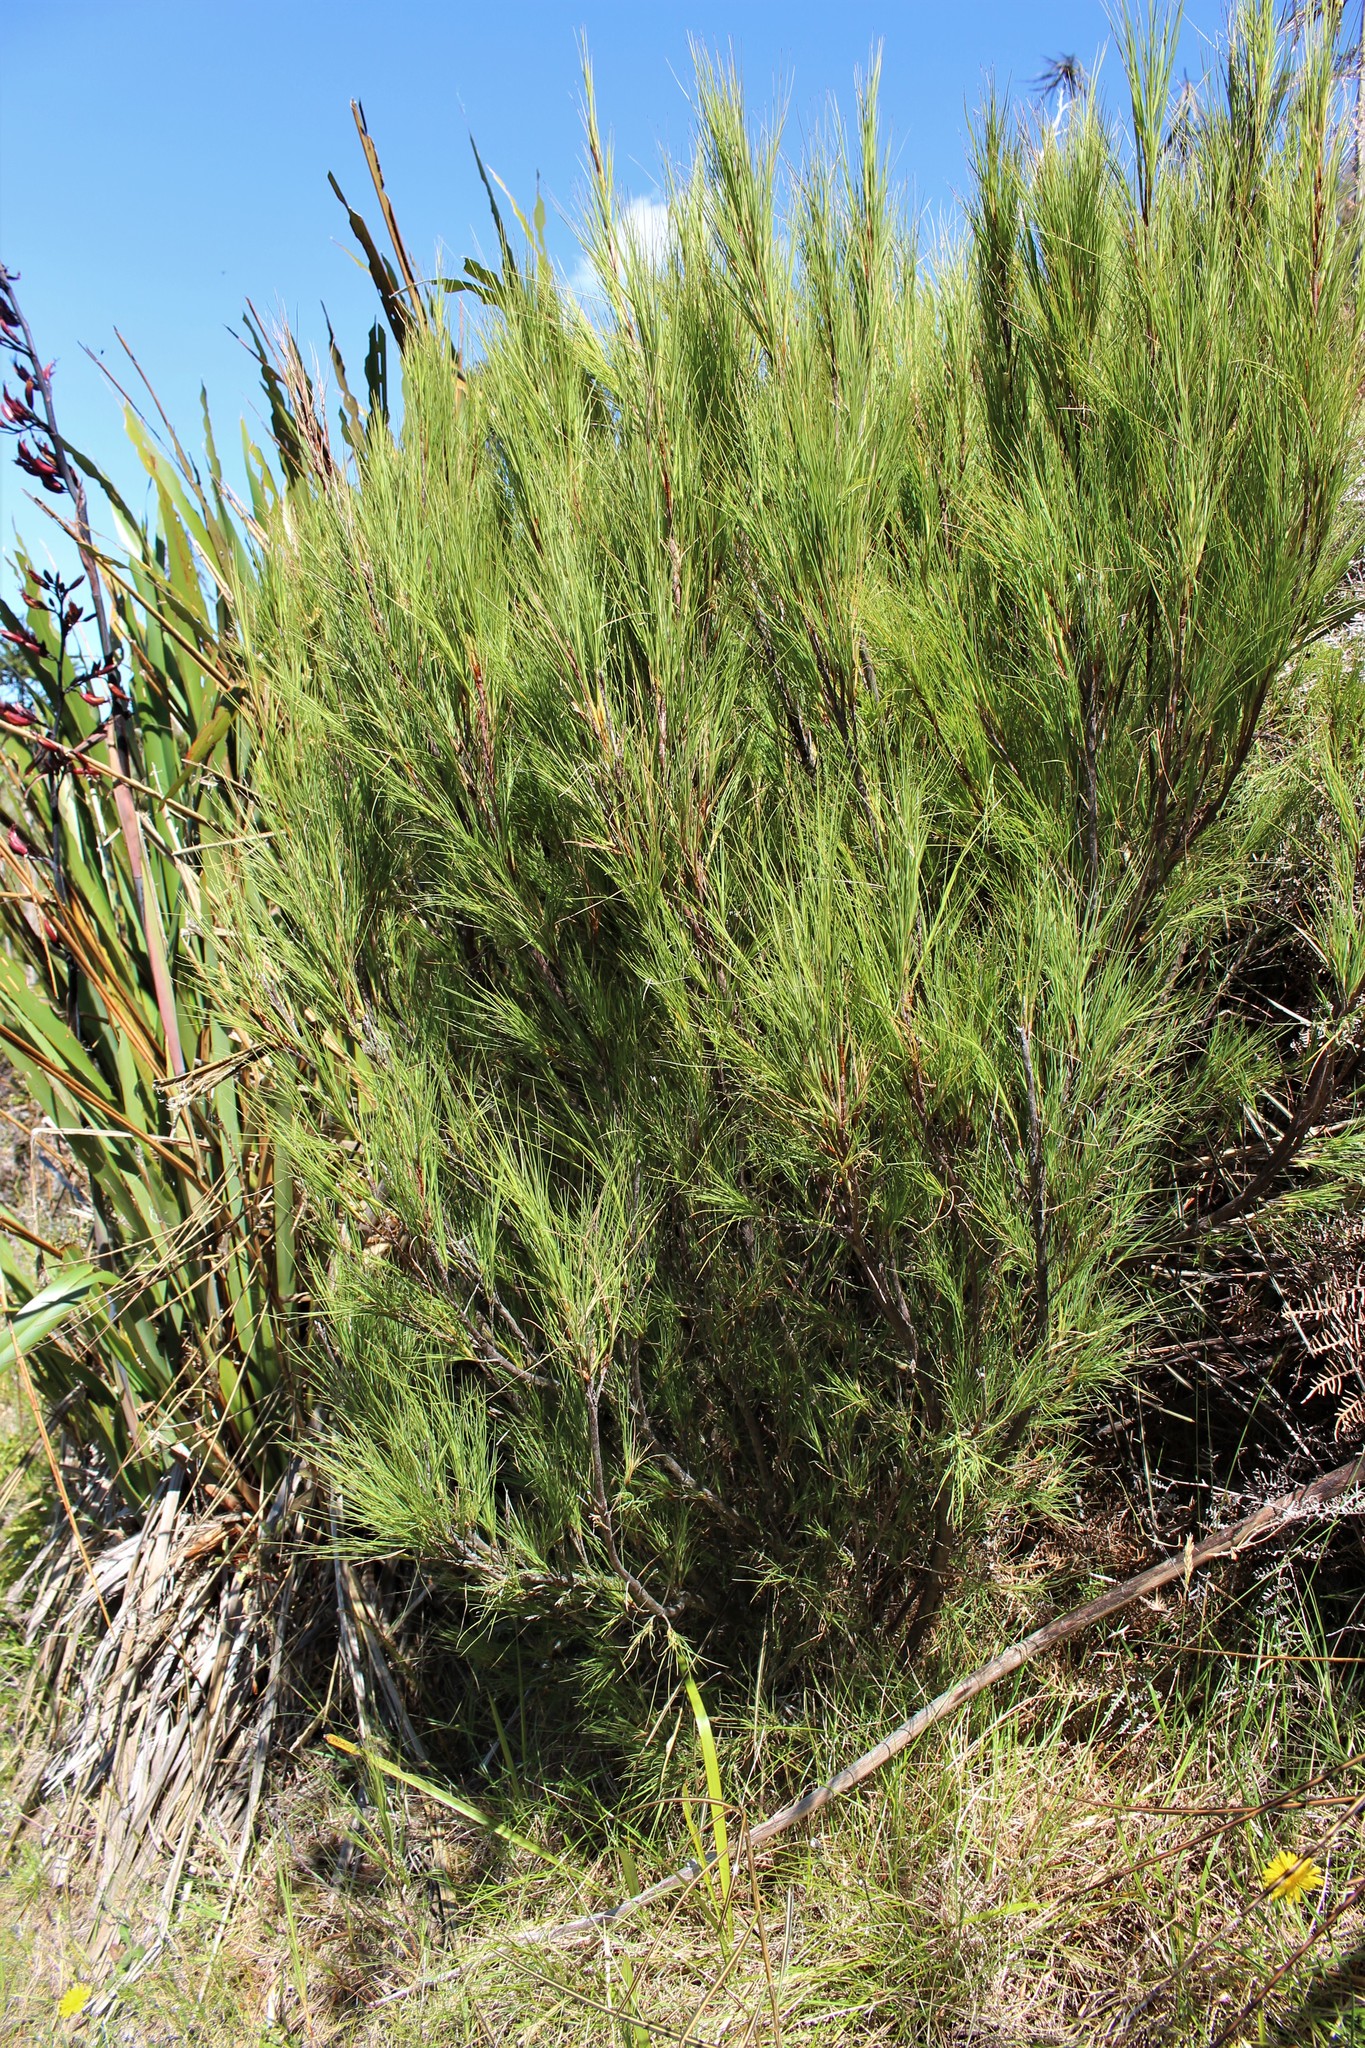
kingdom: Plantae
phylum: Tracheophyta
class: Magnoliopsida
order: Ericales
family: Ericaceae
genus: Dracophyllum
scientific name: Dracophyllum acerosum
